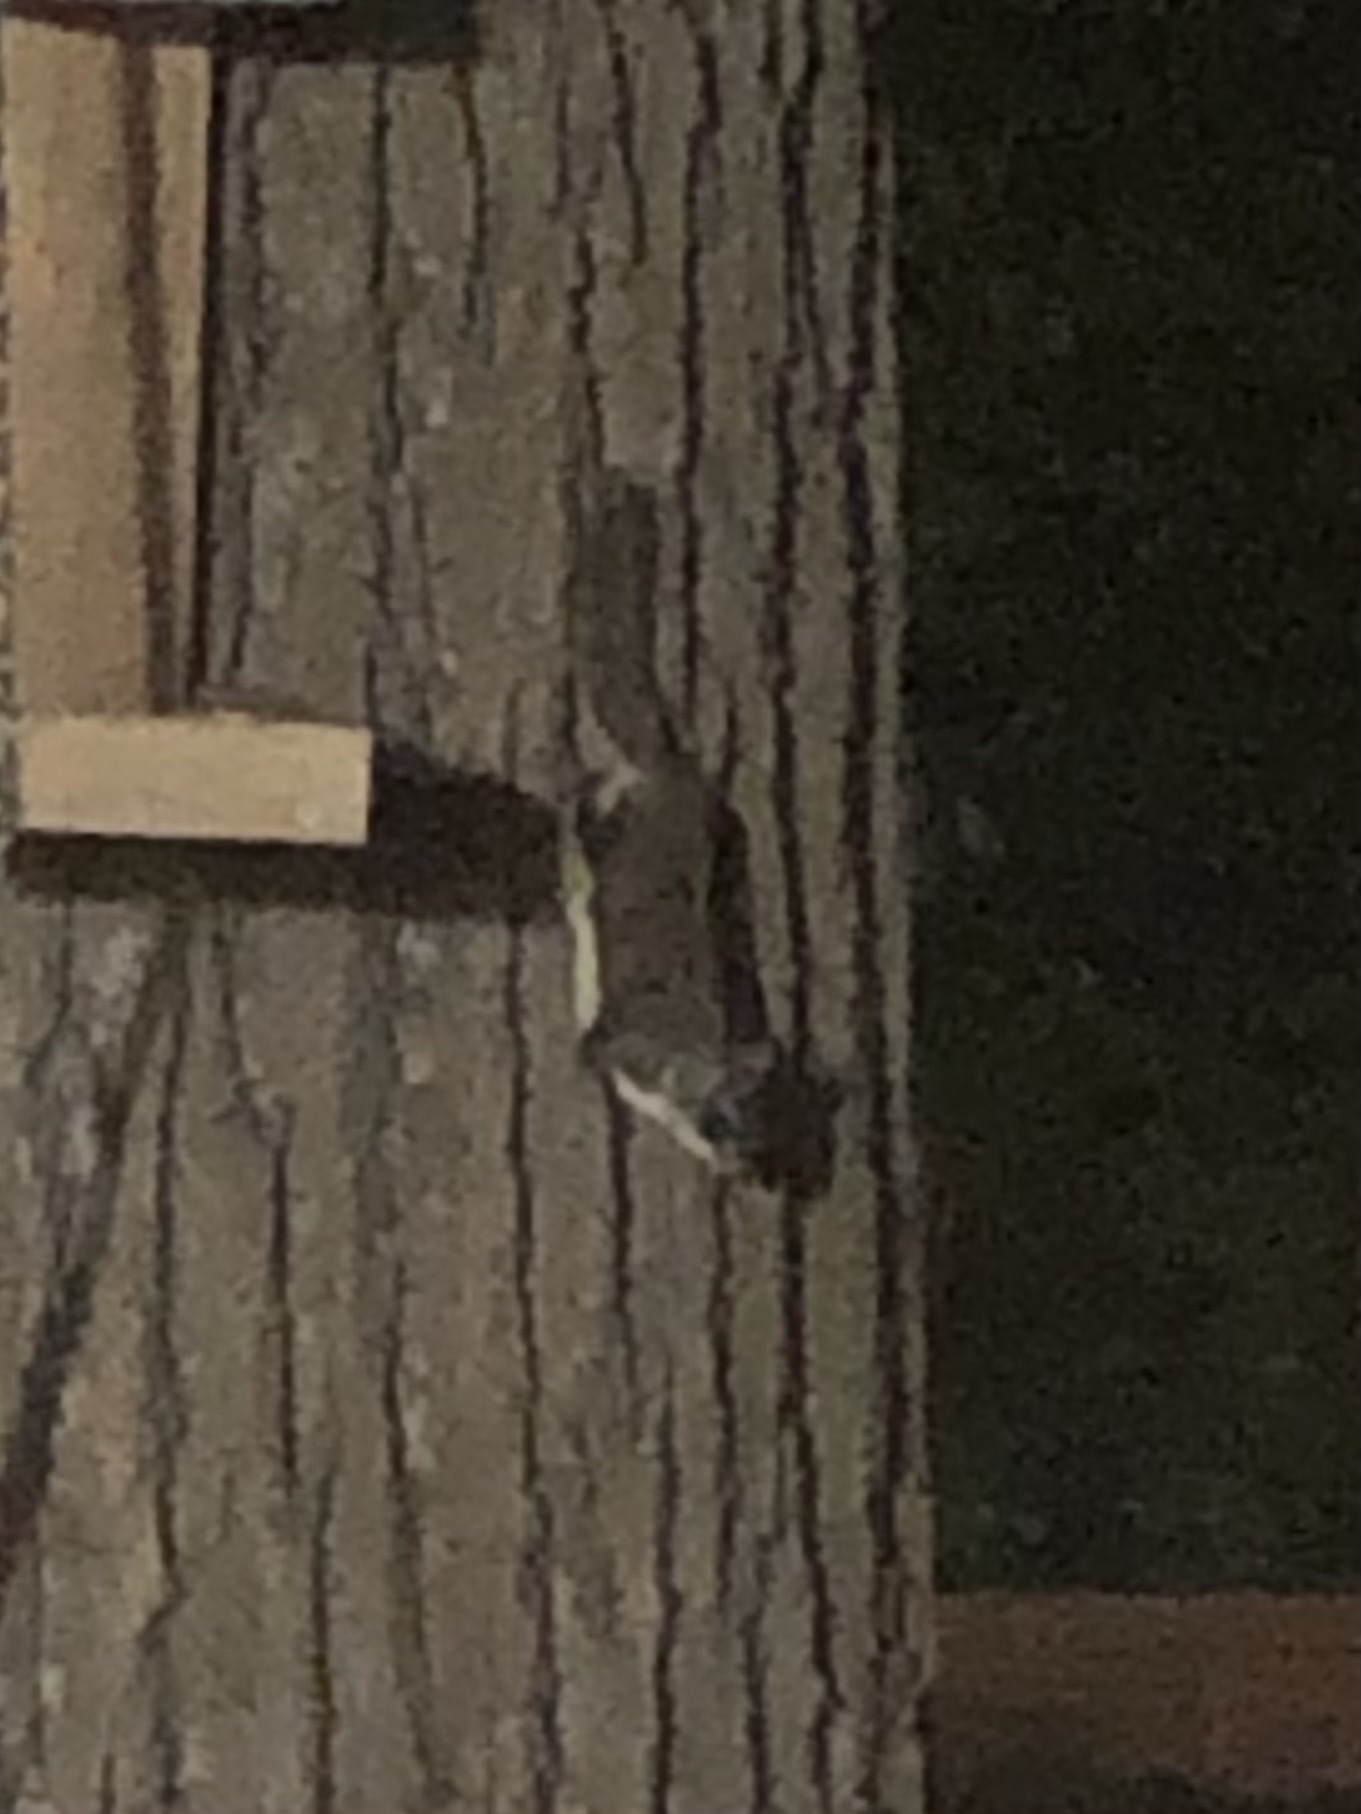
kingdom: Animalia
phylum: Chordata
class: Mammalia
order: Rodentia
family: Sciuridae
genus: Glaucomys
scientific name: Glaucomys volans
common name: Southern flying squirrel
